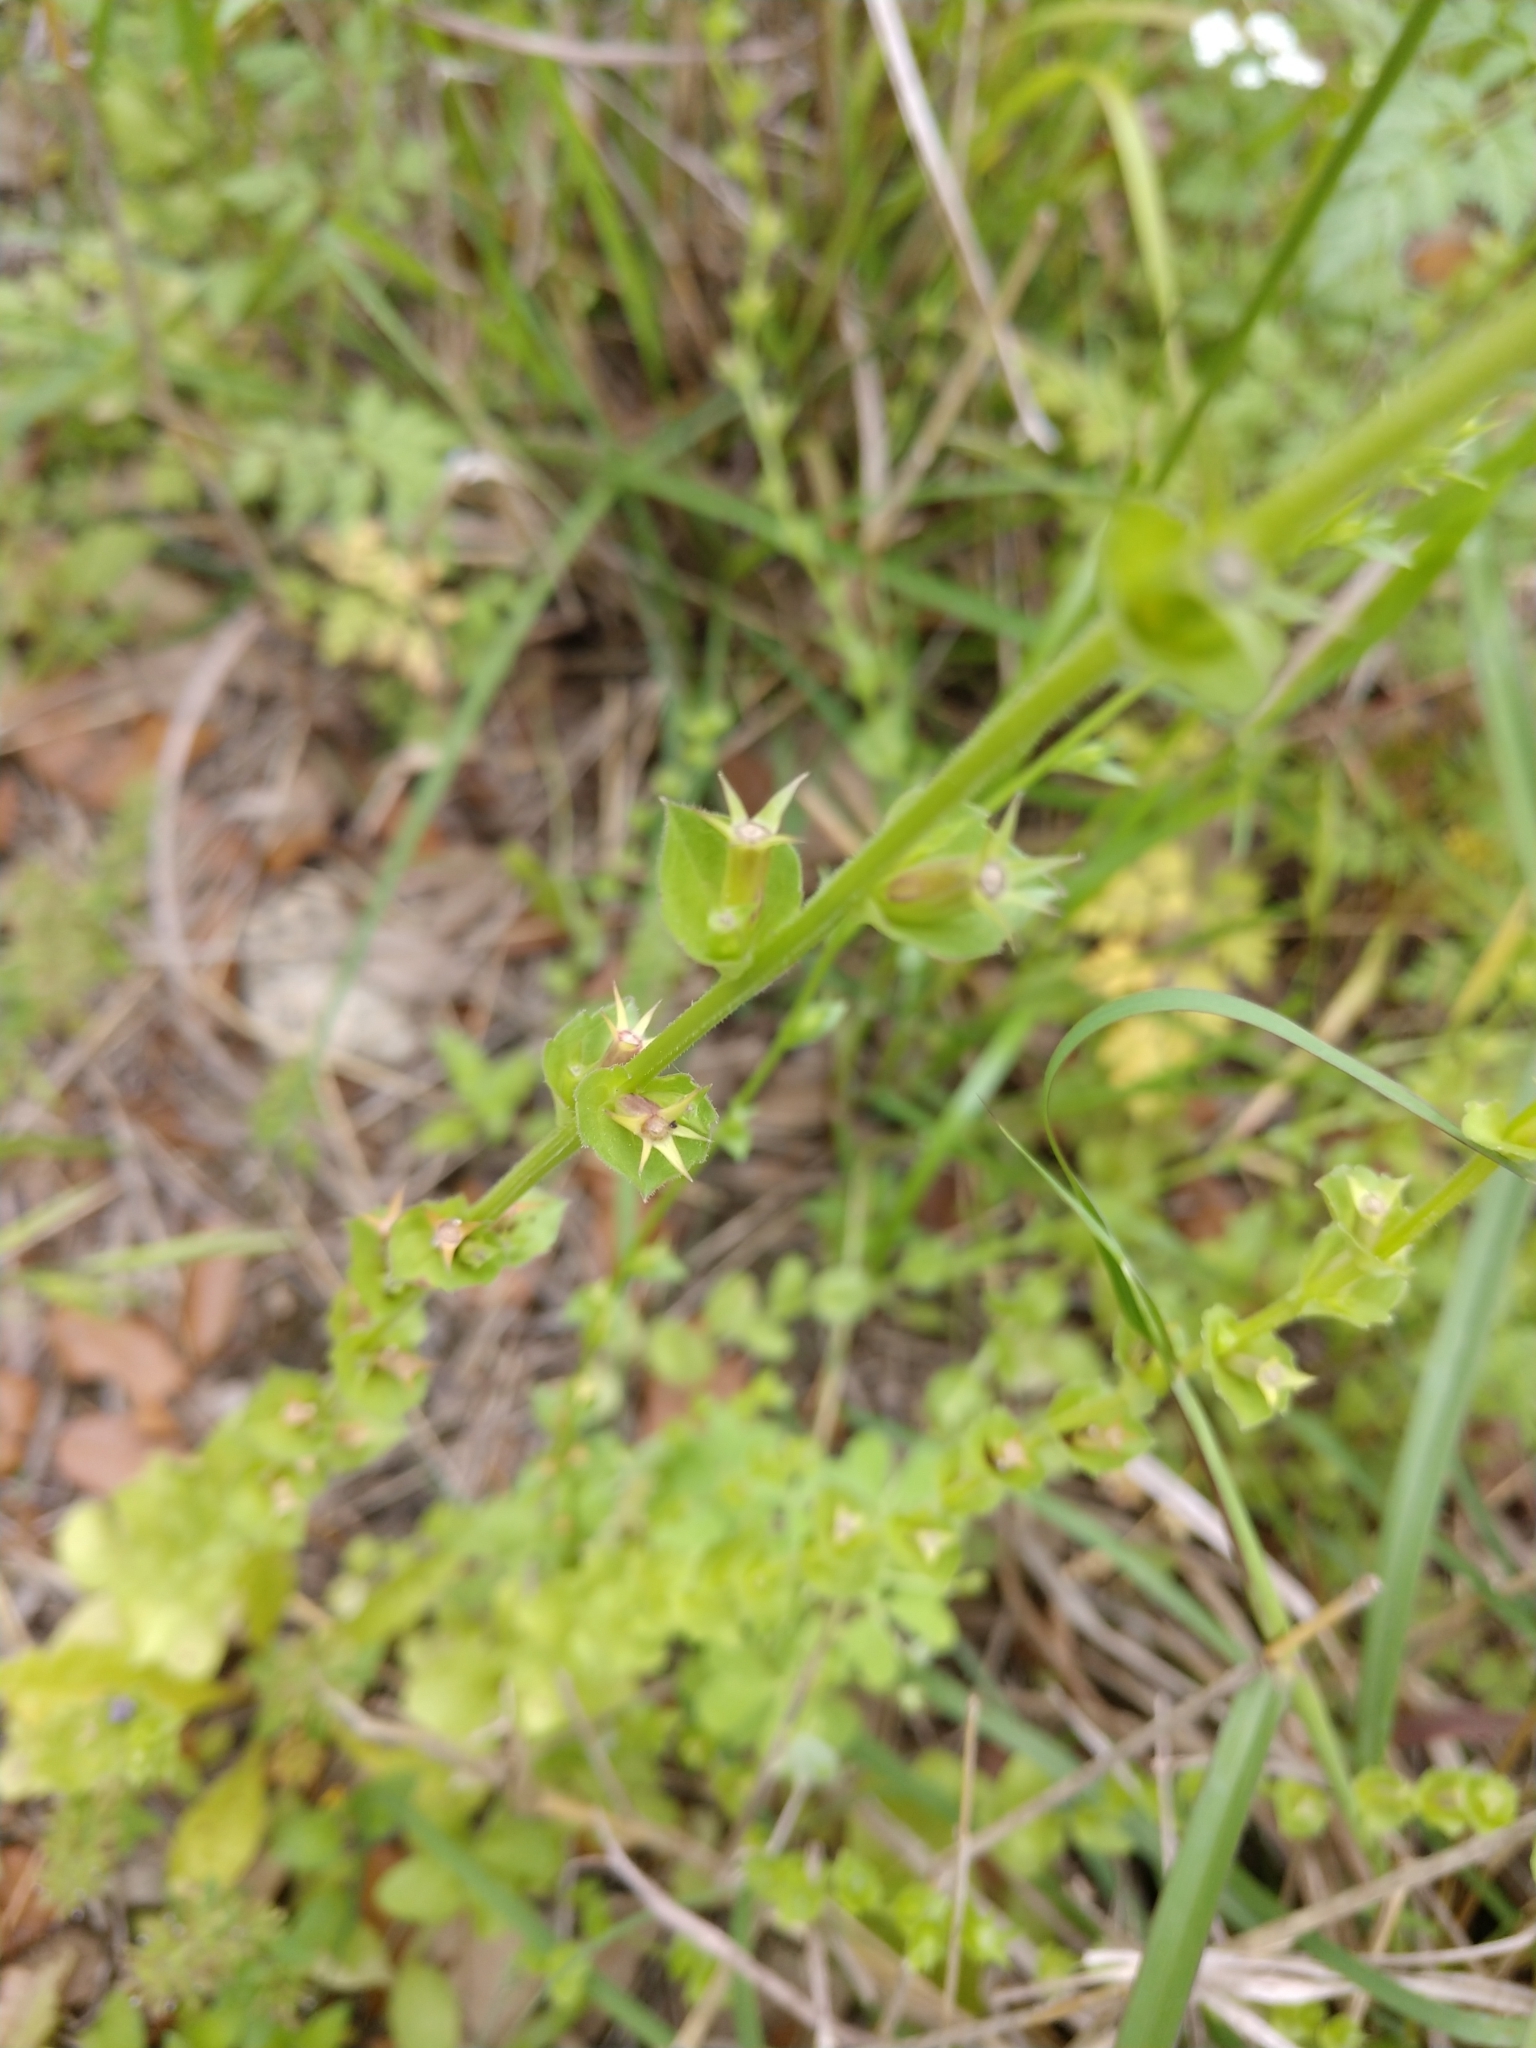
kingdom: Plantae
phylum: Tracheophyta
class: Magnoliopsida
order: Asterales
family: Campanulaceae
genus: Triodanis
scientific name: Triodanis perfoliata
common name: Clasping venus' looking-glass
